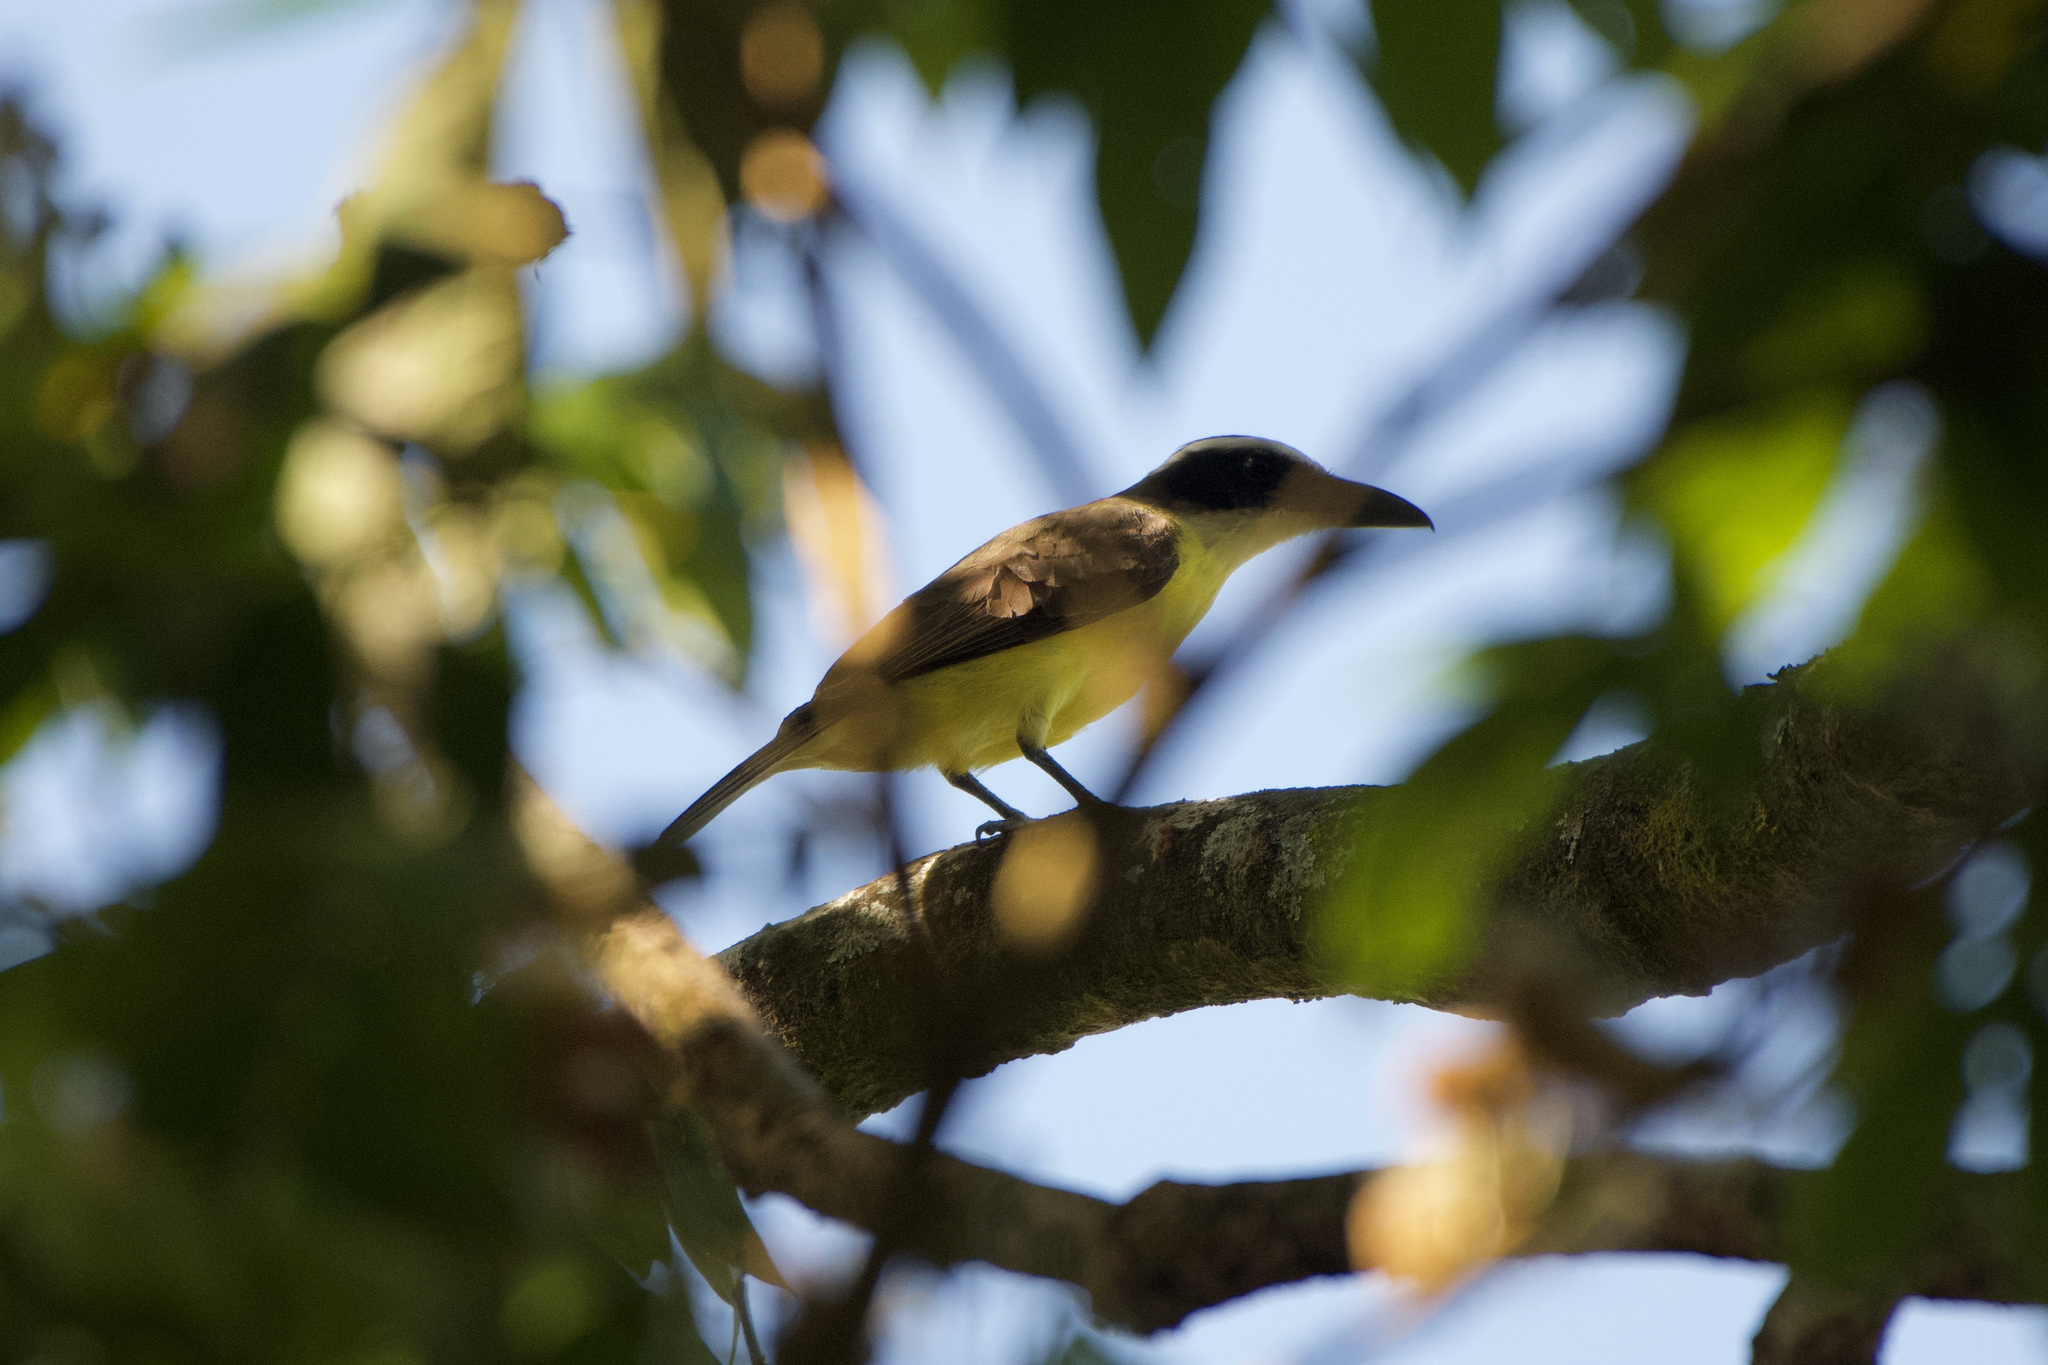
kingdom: Animalia
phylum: Chordata
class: Aves
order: Passeriformes
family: Tyrannidae
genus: Megarynchus
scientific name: Megarynchus pitangua
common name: Boat-billed flycatcher
